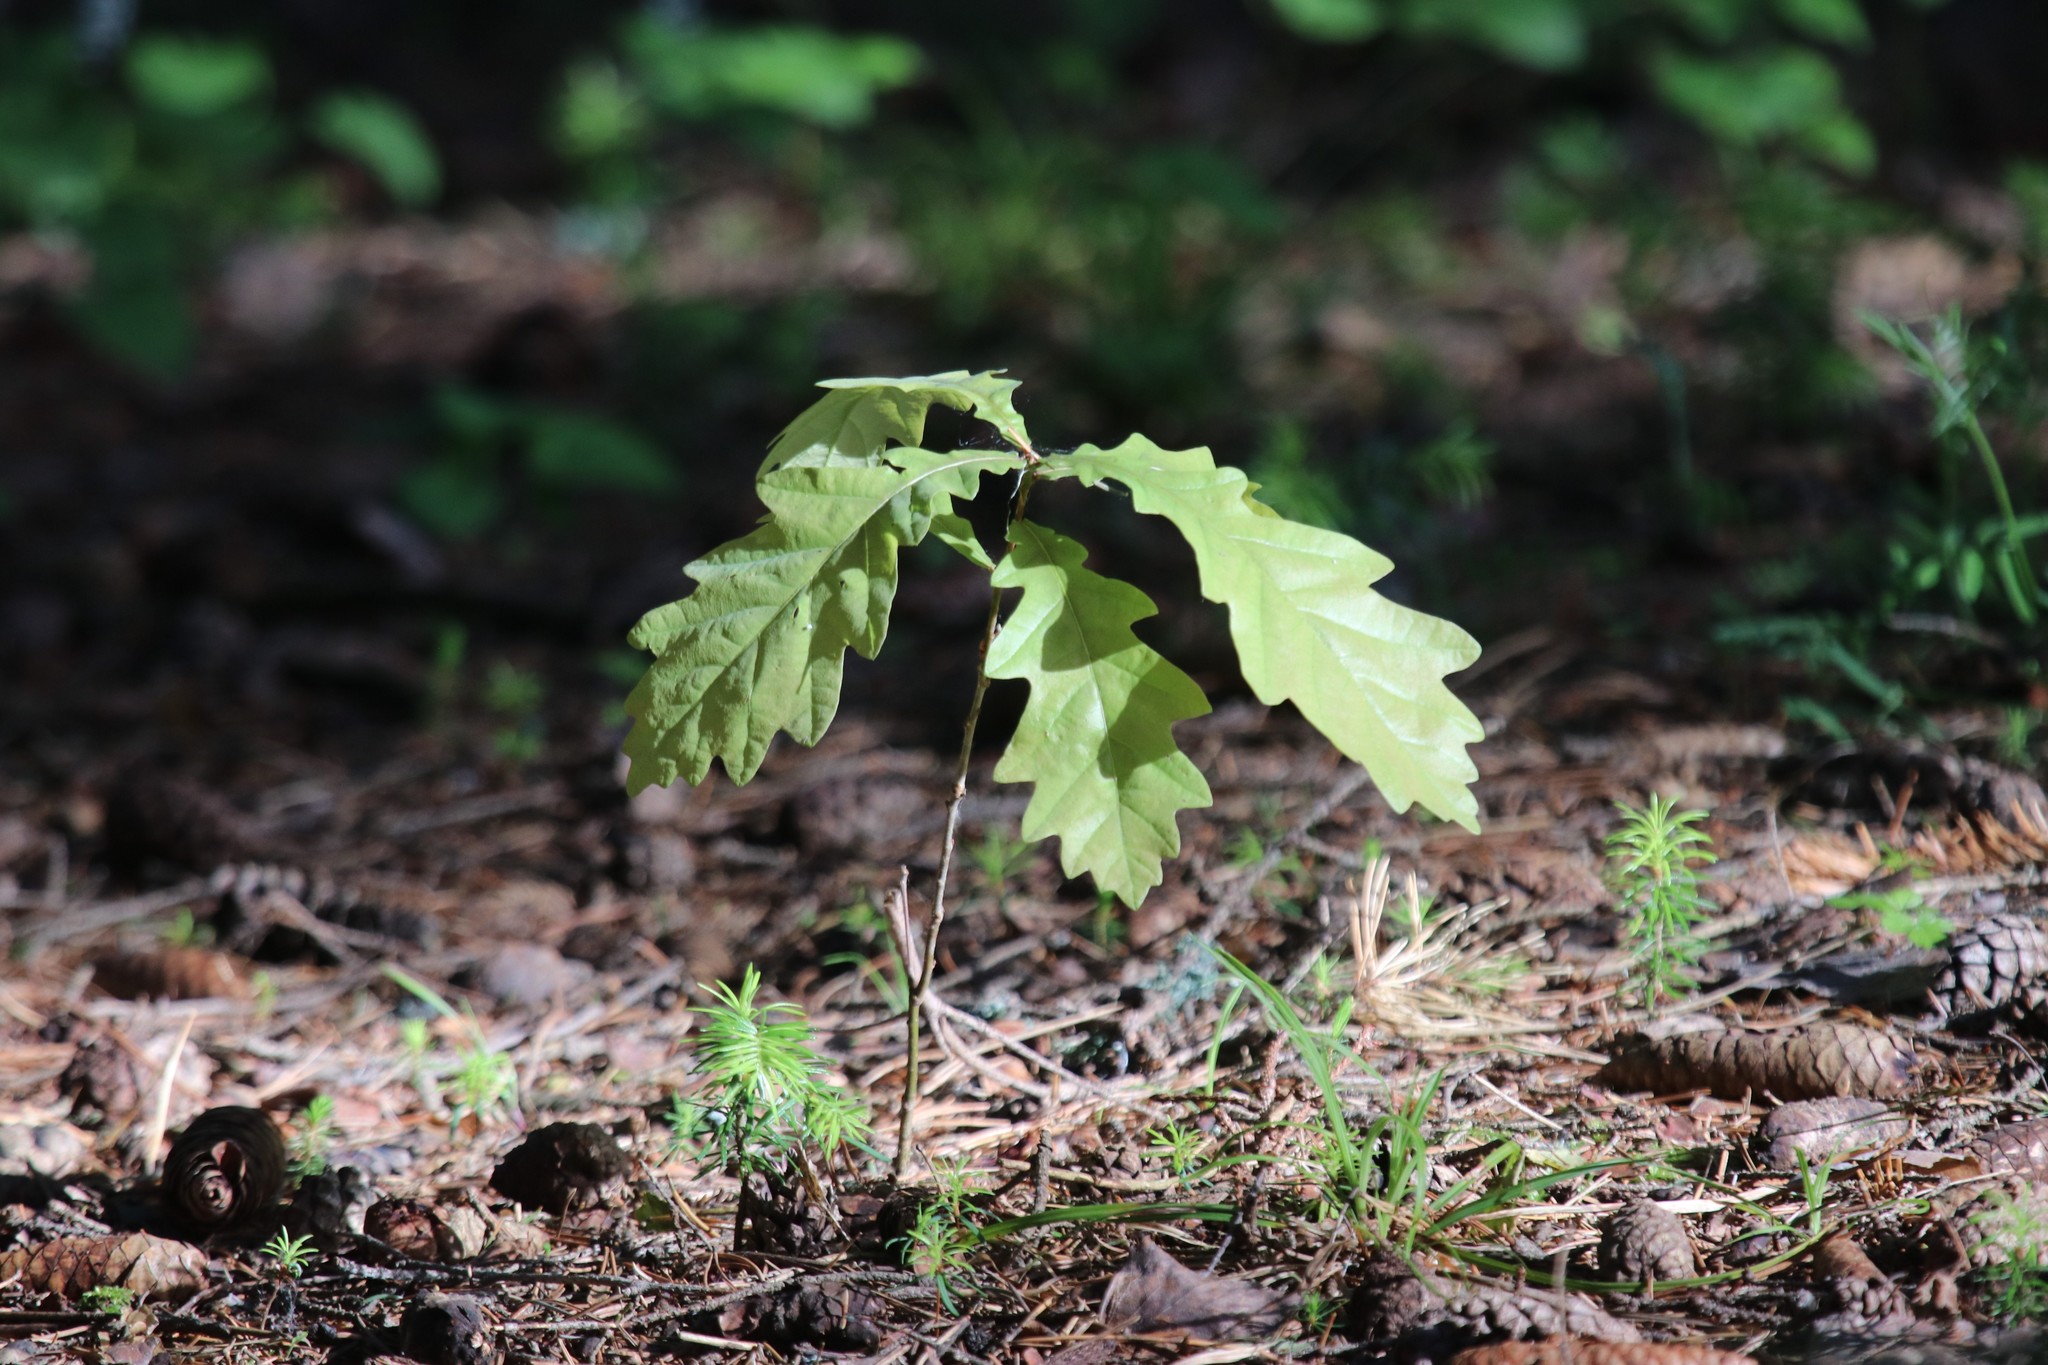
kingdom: Plantae
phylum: Tracheophyta
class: Magnoliopsida
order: Fagales
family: Fagaceae
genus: Quercus
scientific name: Quercus robur
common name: Pedunculate oak
